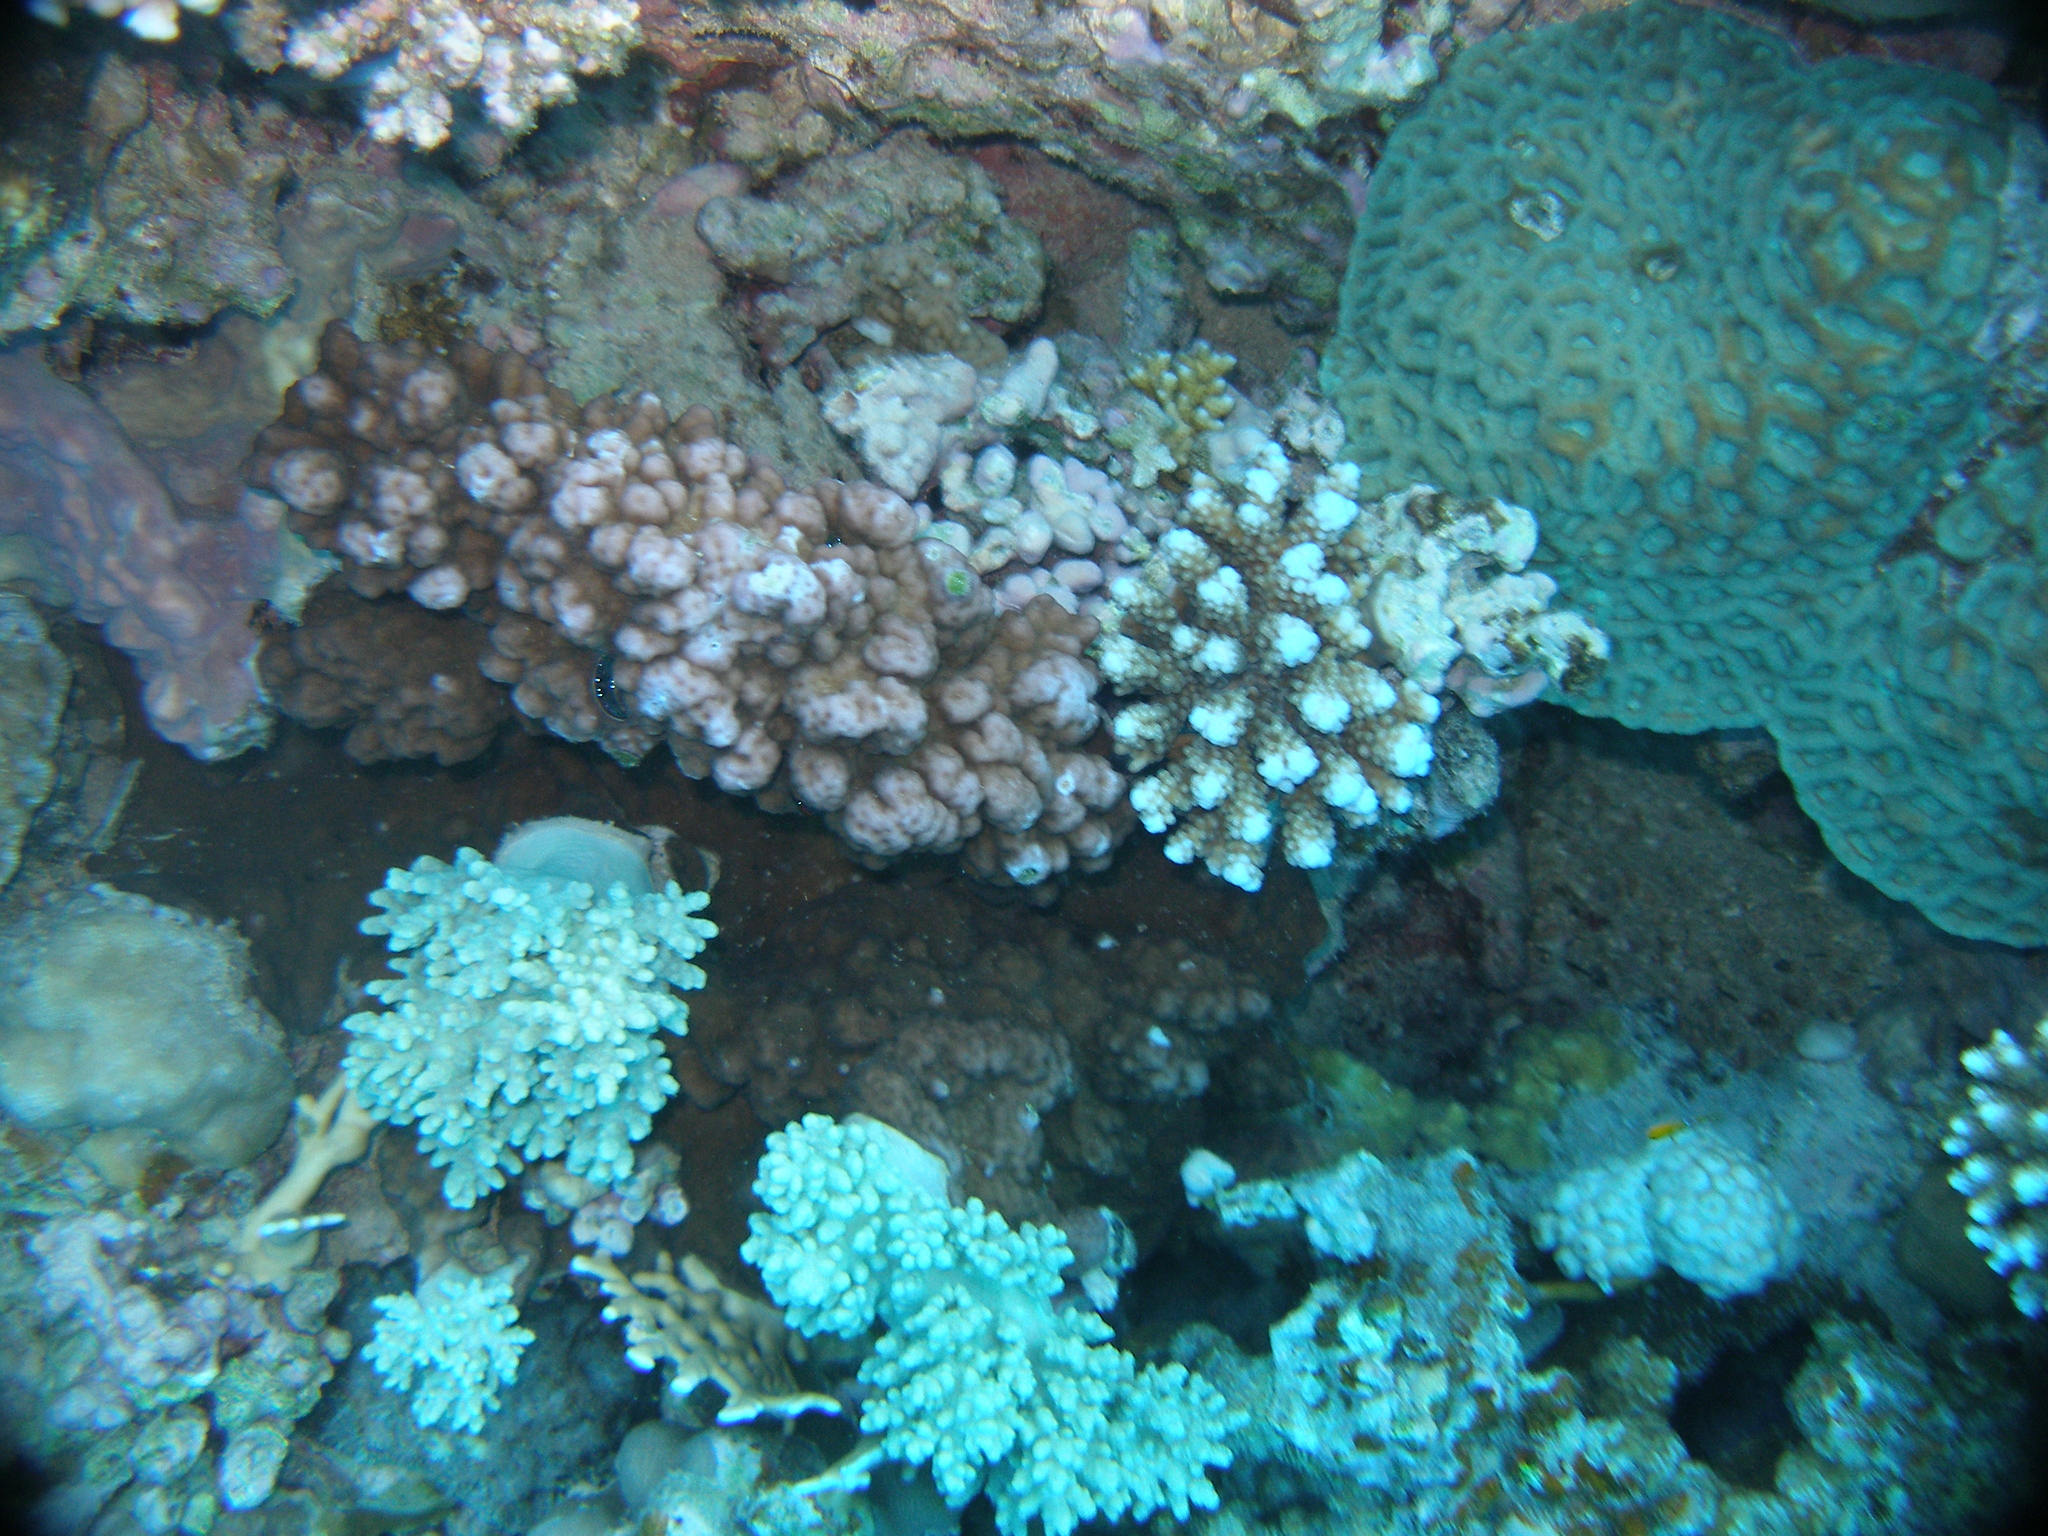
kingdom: Animalia
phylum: Cnidaria
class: Anthozoa
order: Scleractinia
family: Acroporidae
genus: Acropora
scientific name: Acropora gemmifera
